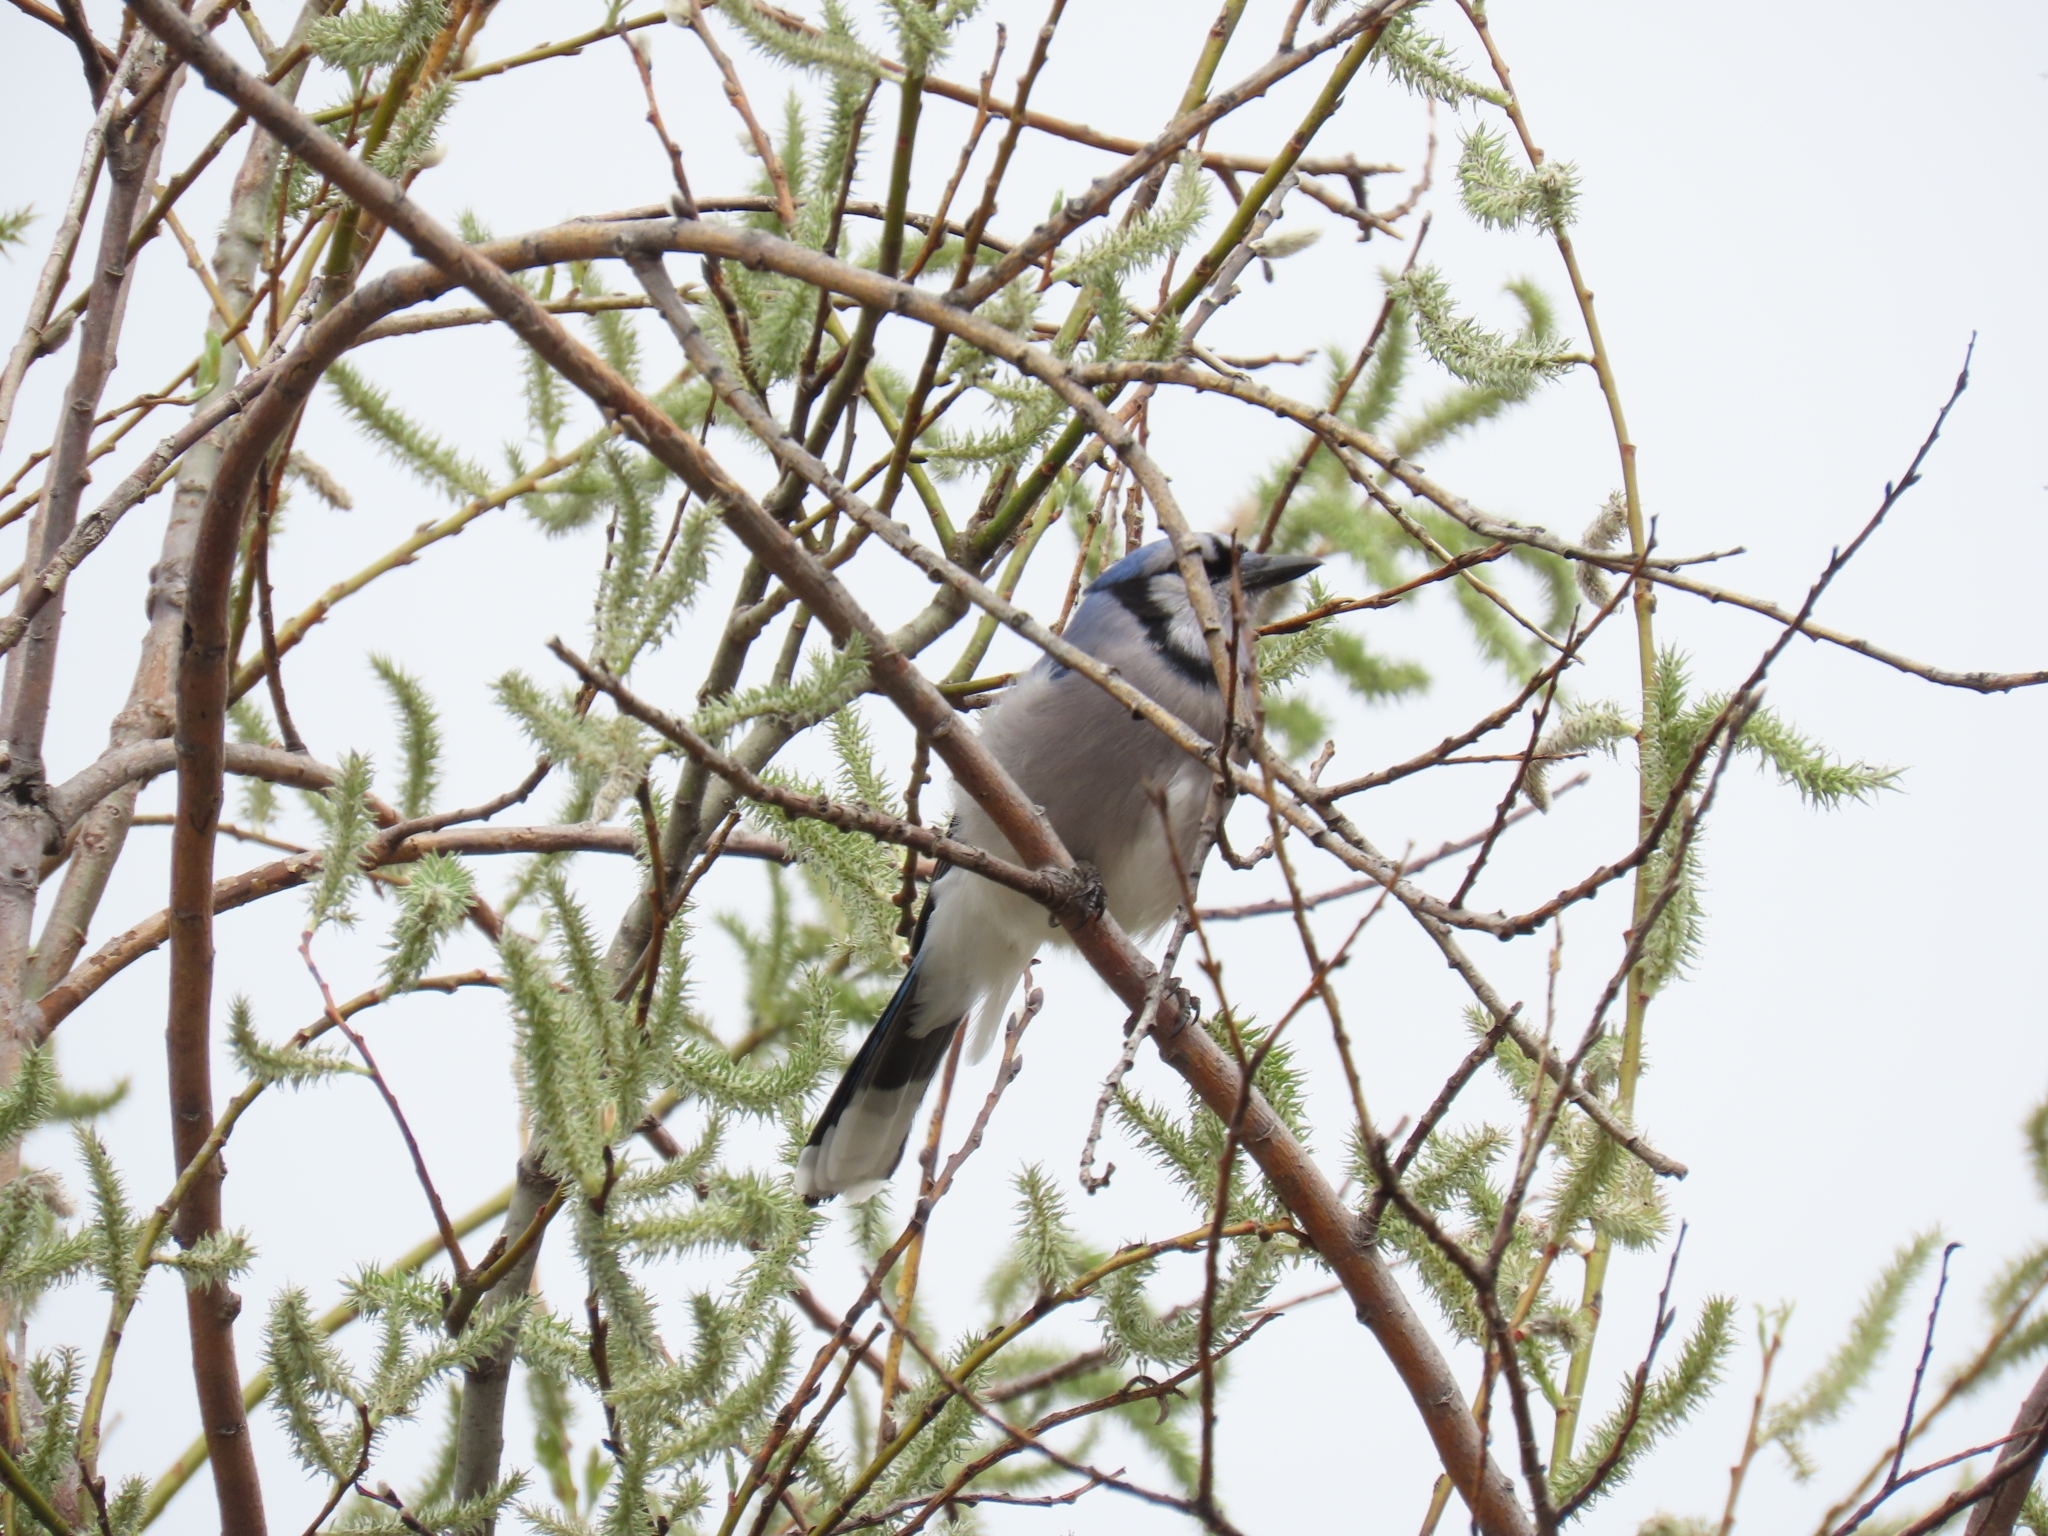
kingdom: Animalia
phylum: Chordata
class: Aves
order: Passeriformes
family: Corvidae
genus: Cyanocitta
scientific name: Cyanocitta cristata
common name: Blue jay
